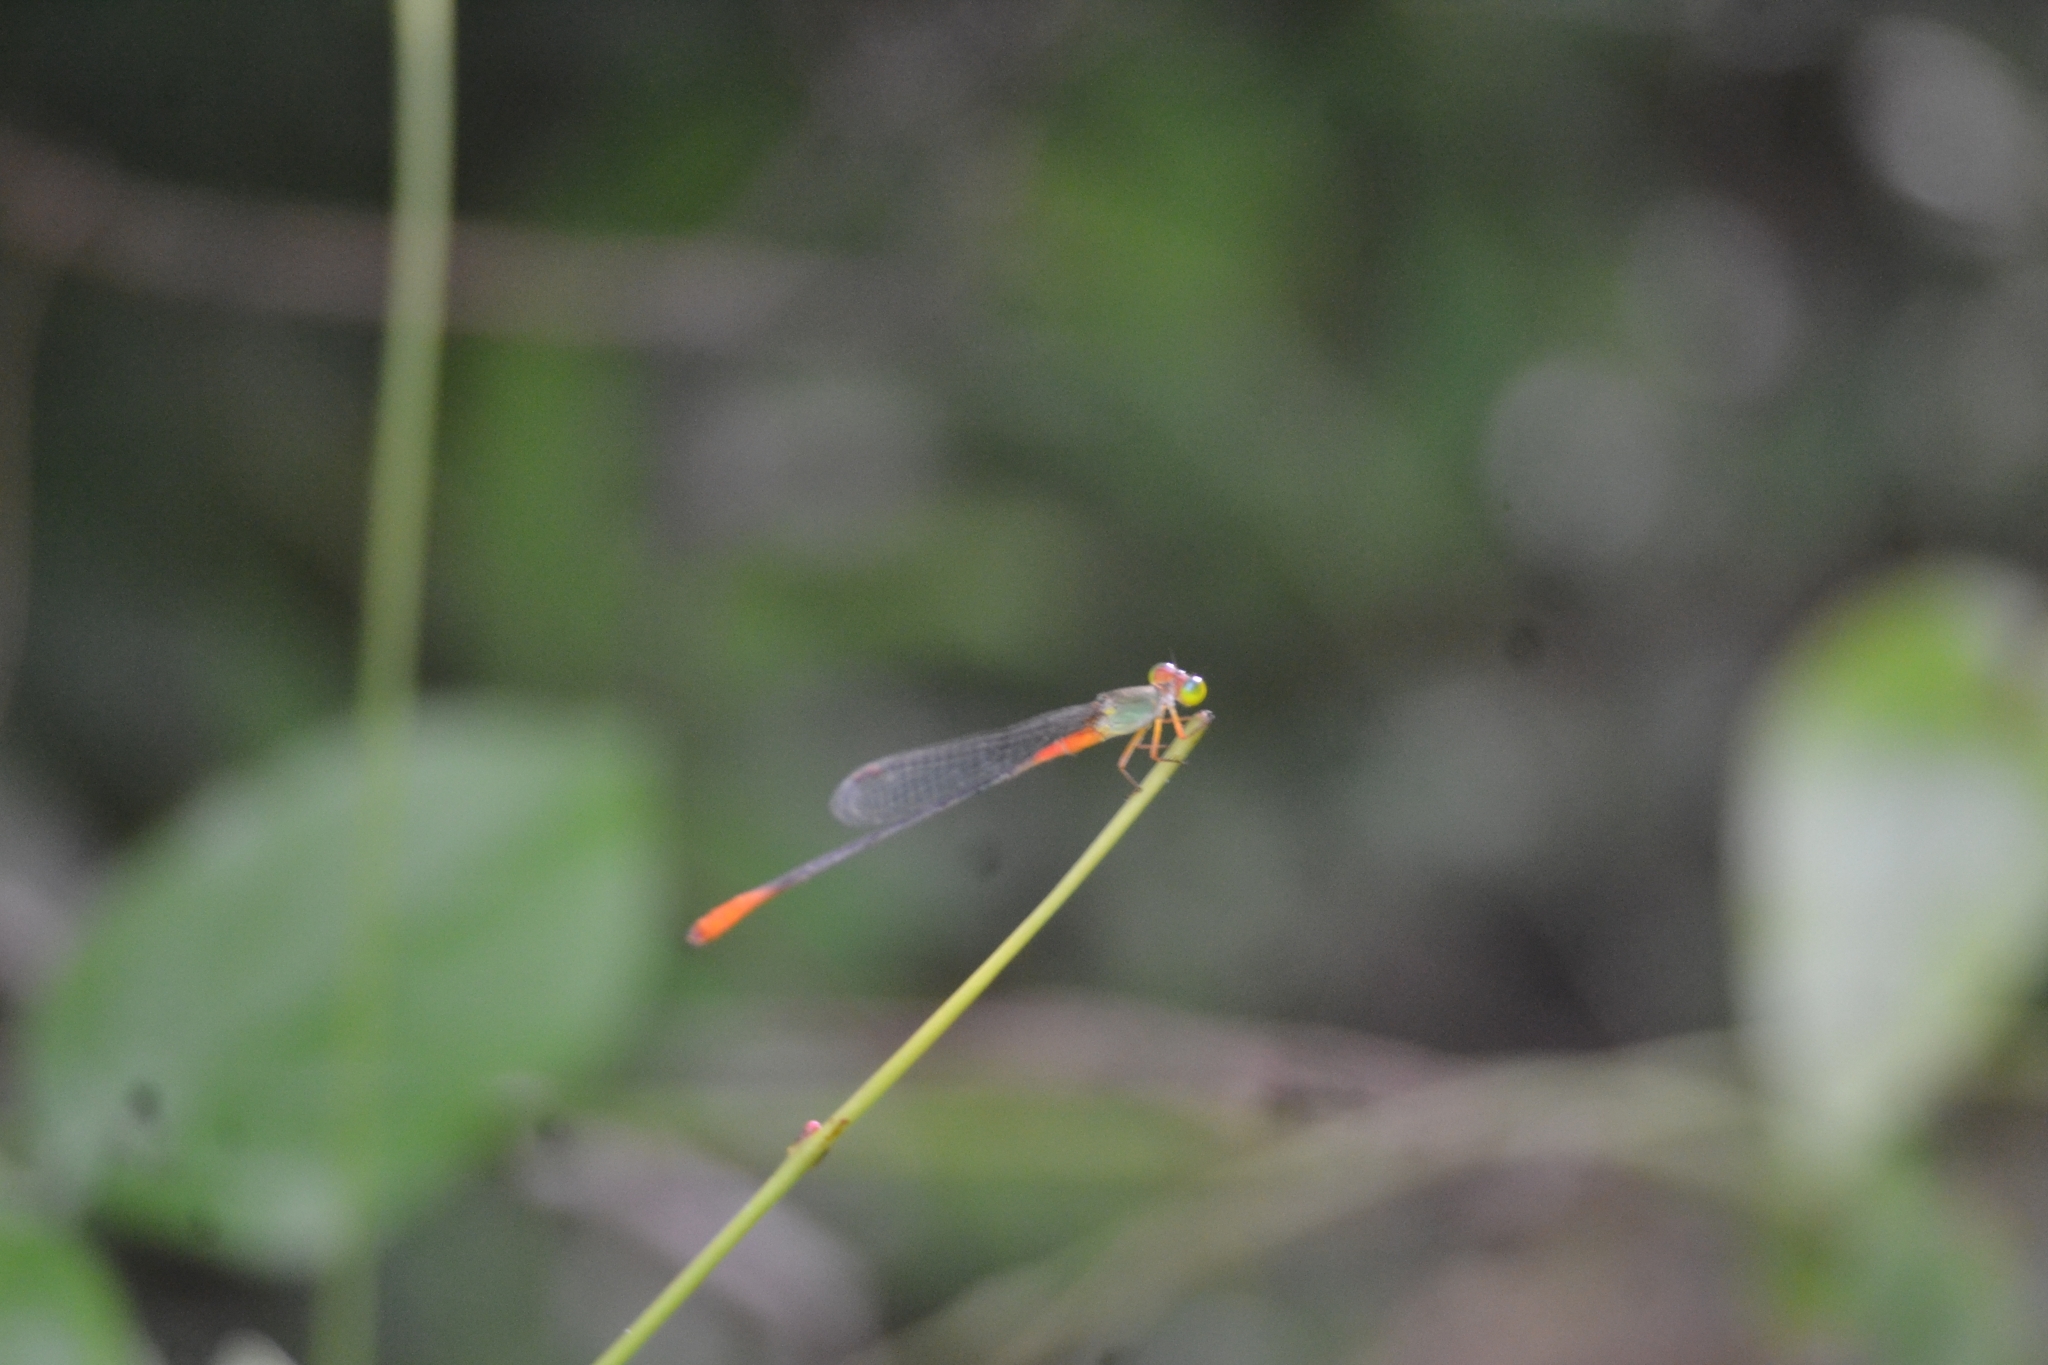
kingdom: Animalia
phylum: Arthropoda
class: Insecta
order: Odonata
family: Coenagrionidae
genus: Ceriagrion
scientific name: Ceriagrion cerinorubellum
